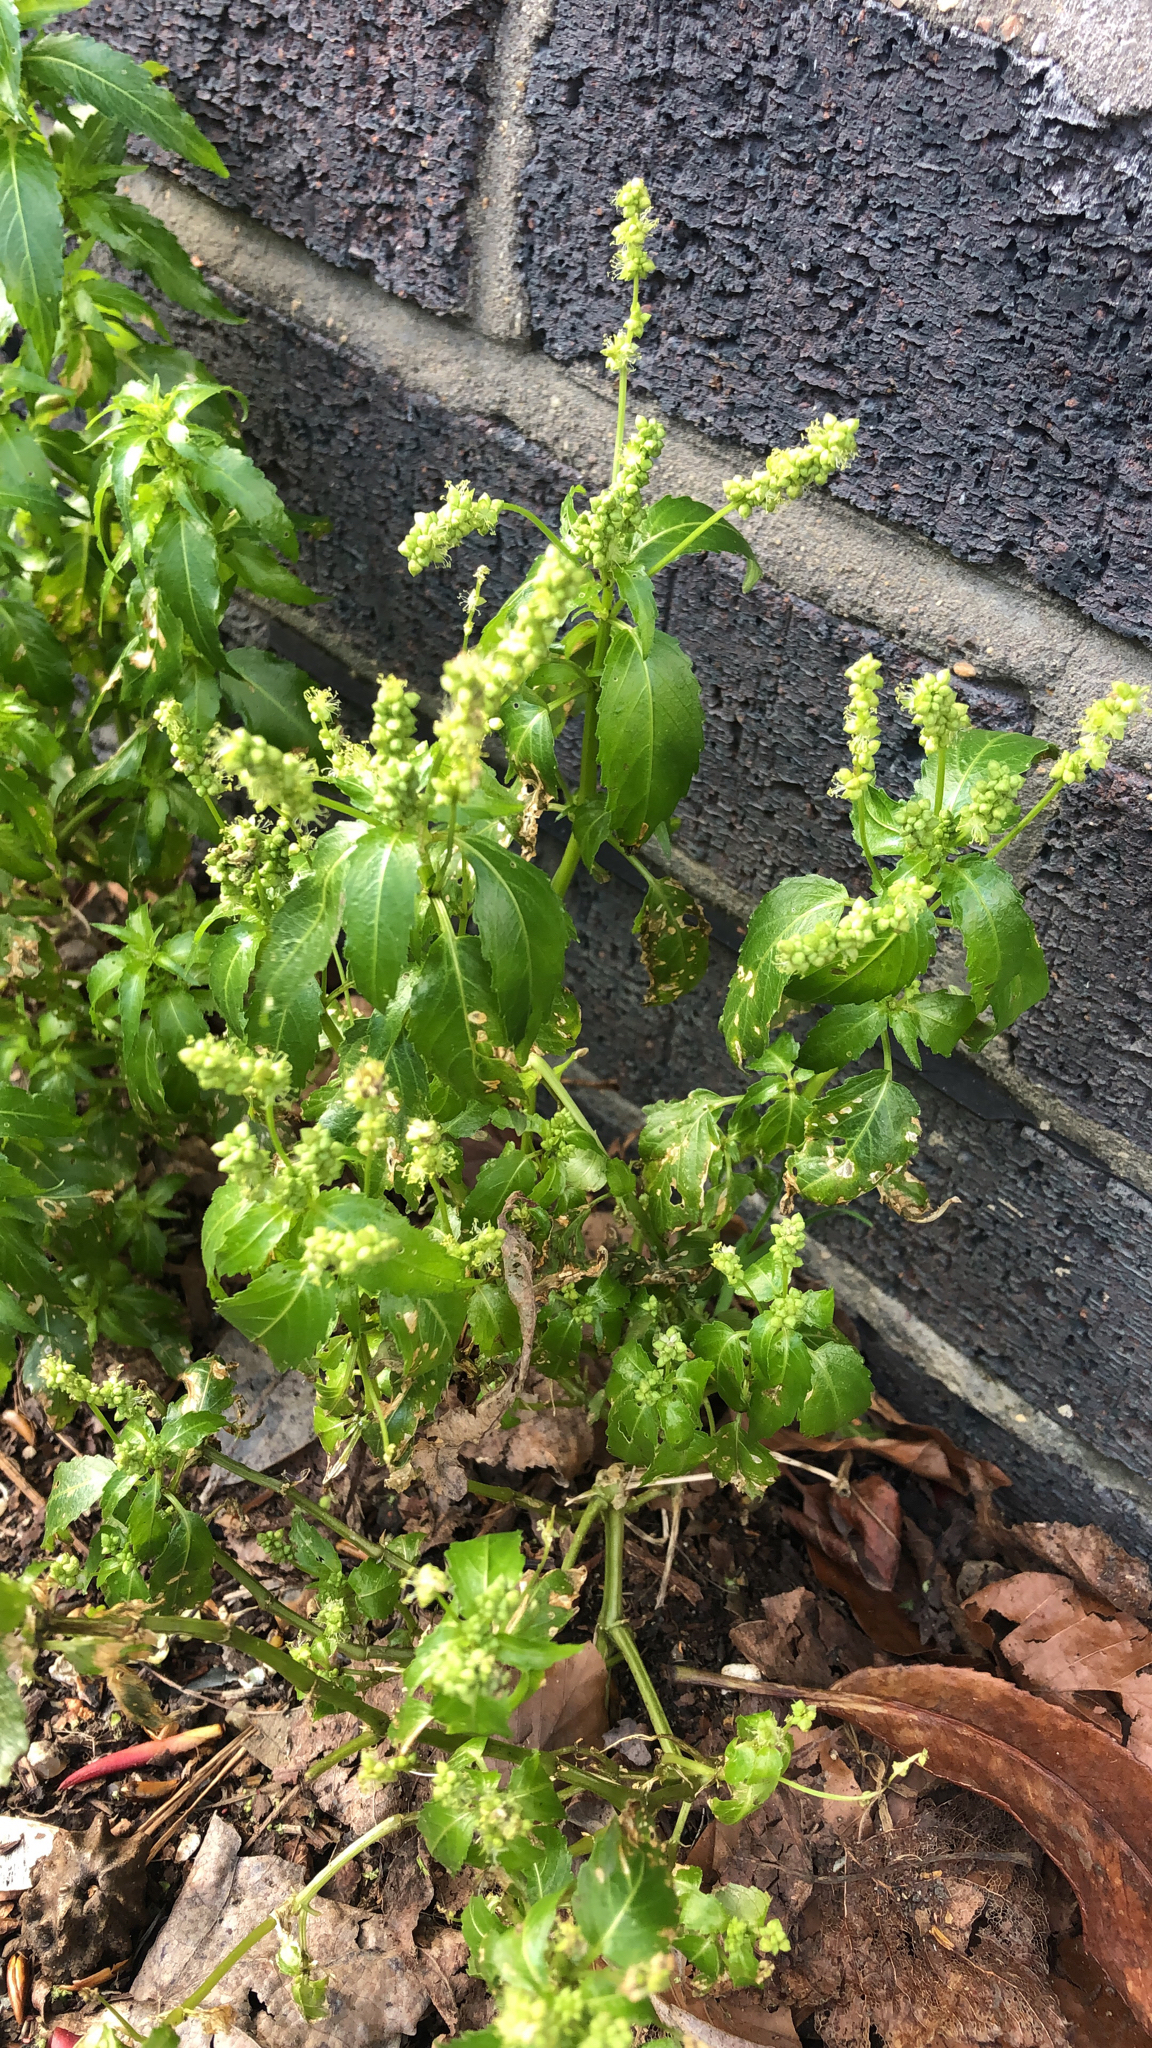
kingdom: Plantae
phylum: Tracheophyta
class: Magnoliopsida
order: Malpighiales
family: Euphorbiaceae
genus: Mercurialis
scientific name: Mercurialis annua
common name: Annual mercury
